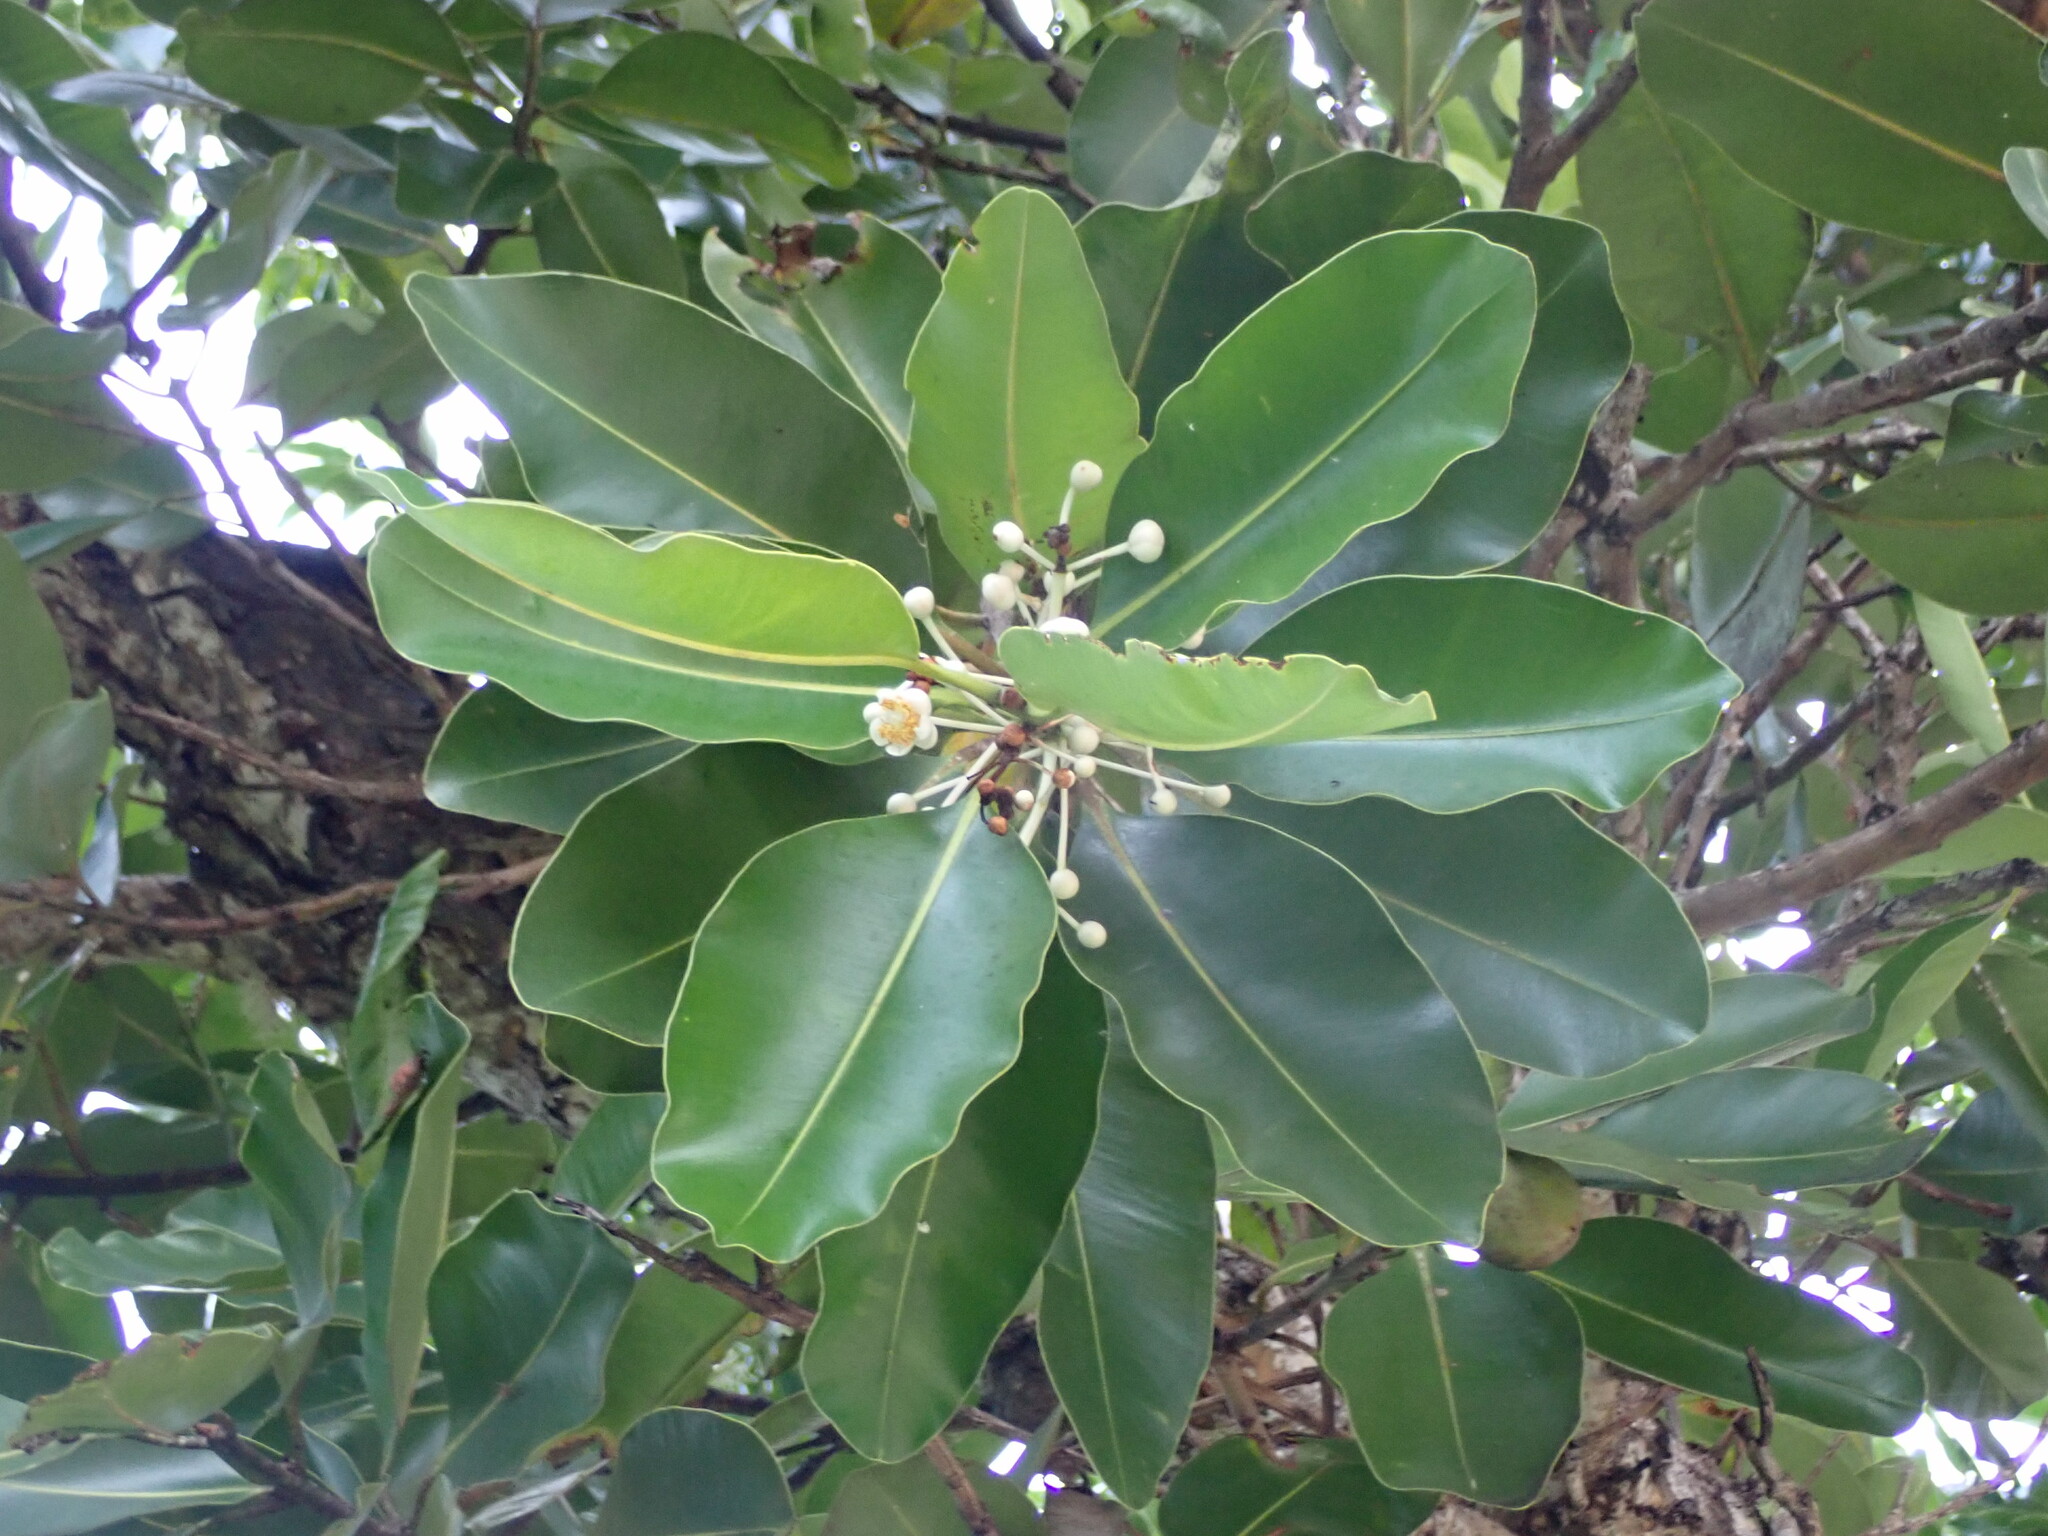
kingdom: Plantae
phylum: Tracheophyta
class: Magnoliopsida
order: Malpighiales
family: Calophyllaceae
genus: Calophyllum
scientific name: Calophyllum inophyllum
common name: Alexandrian laurel
